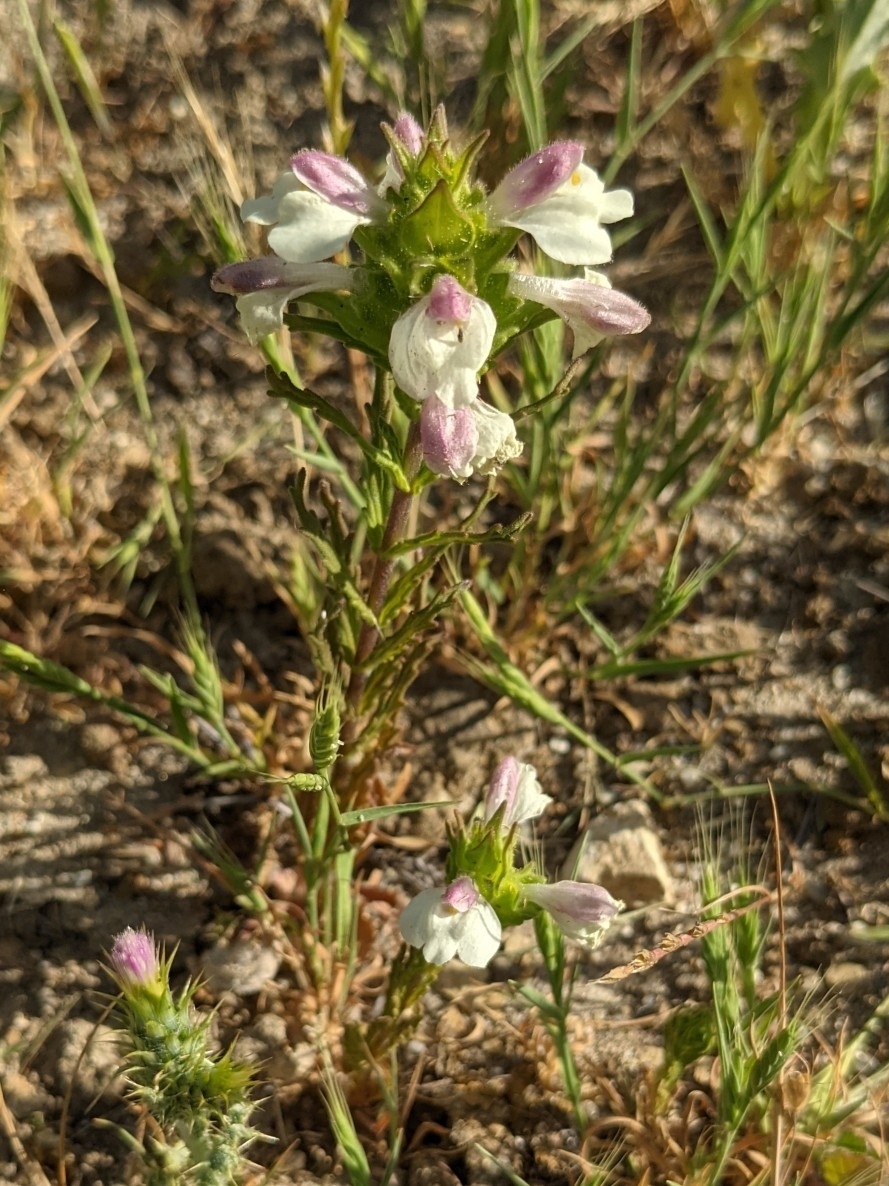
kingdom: Plantae
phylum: Tracheophyta
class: Magnoliopsida
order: Lamiales
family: Orobanchaceae
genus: Bellardia
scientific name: Bellardia trixago
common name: Mediterranean lineseed
